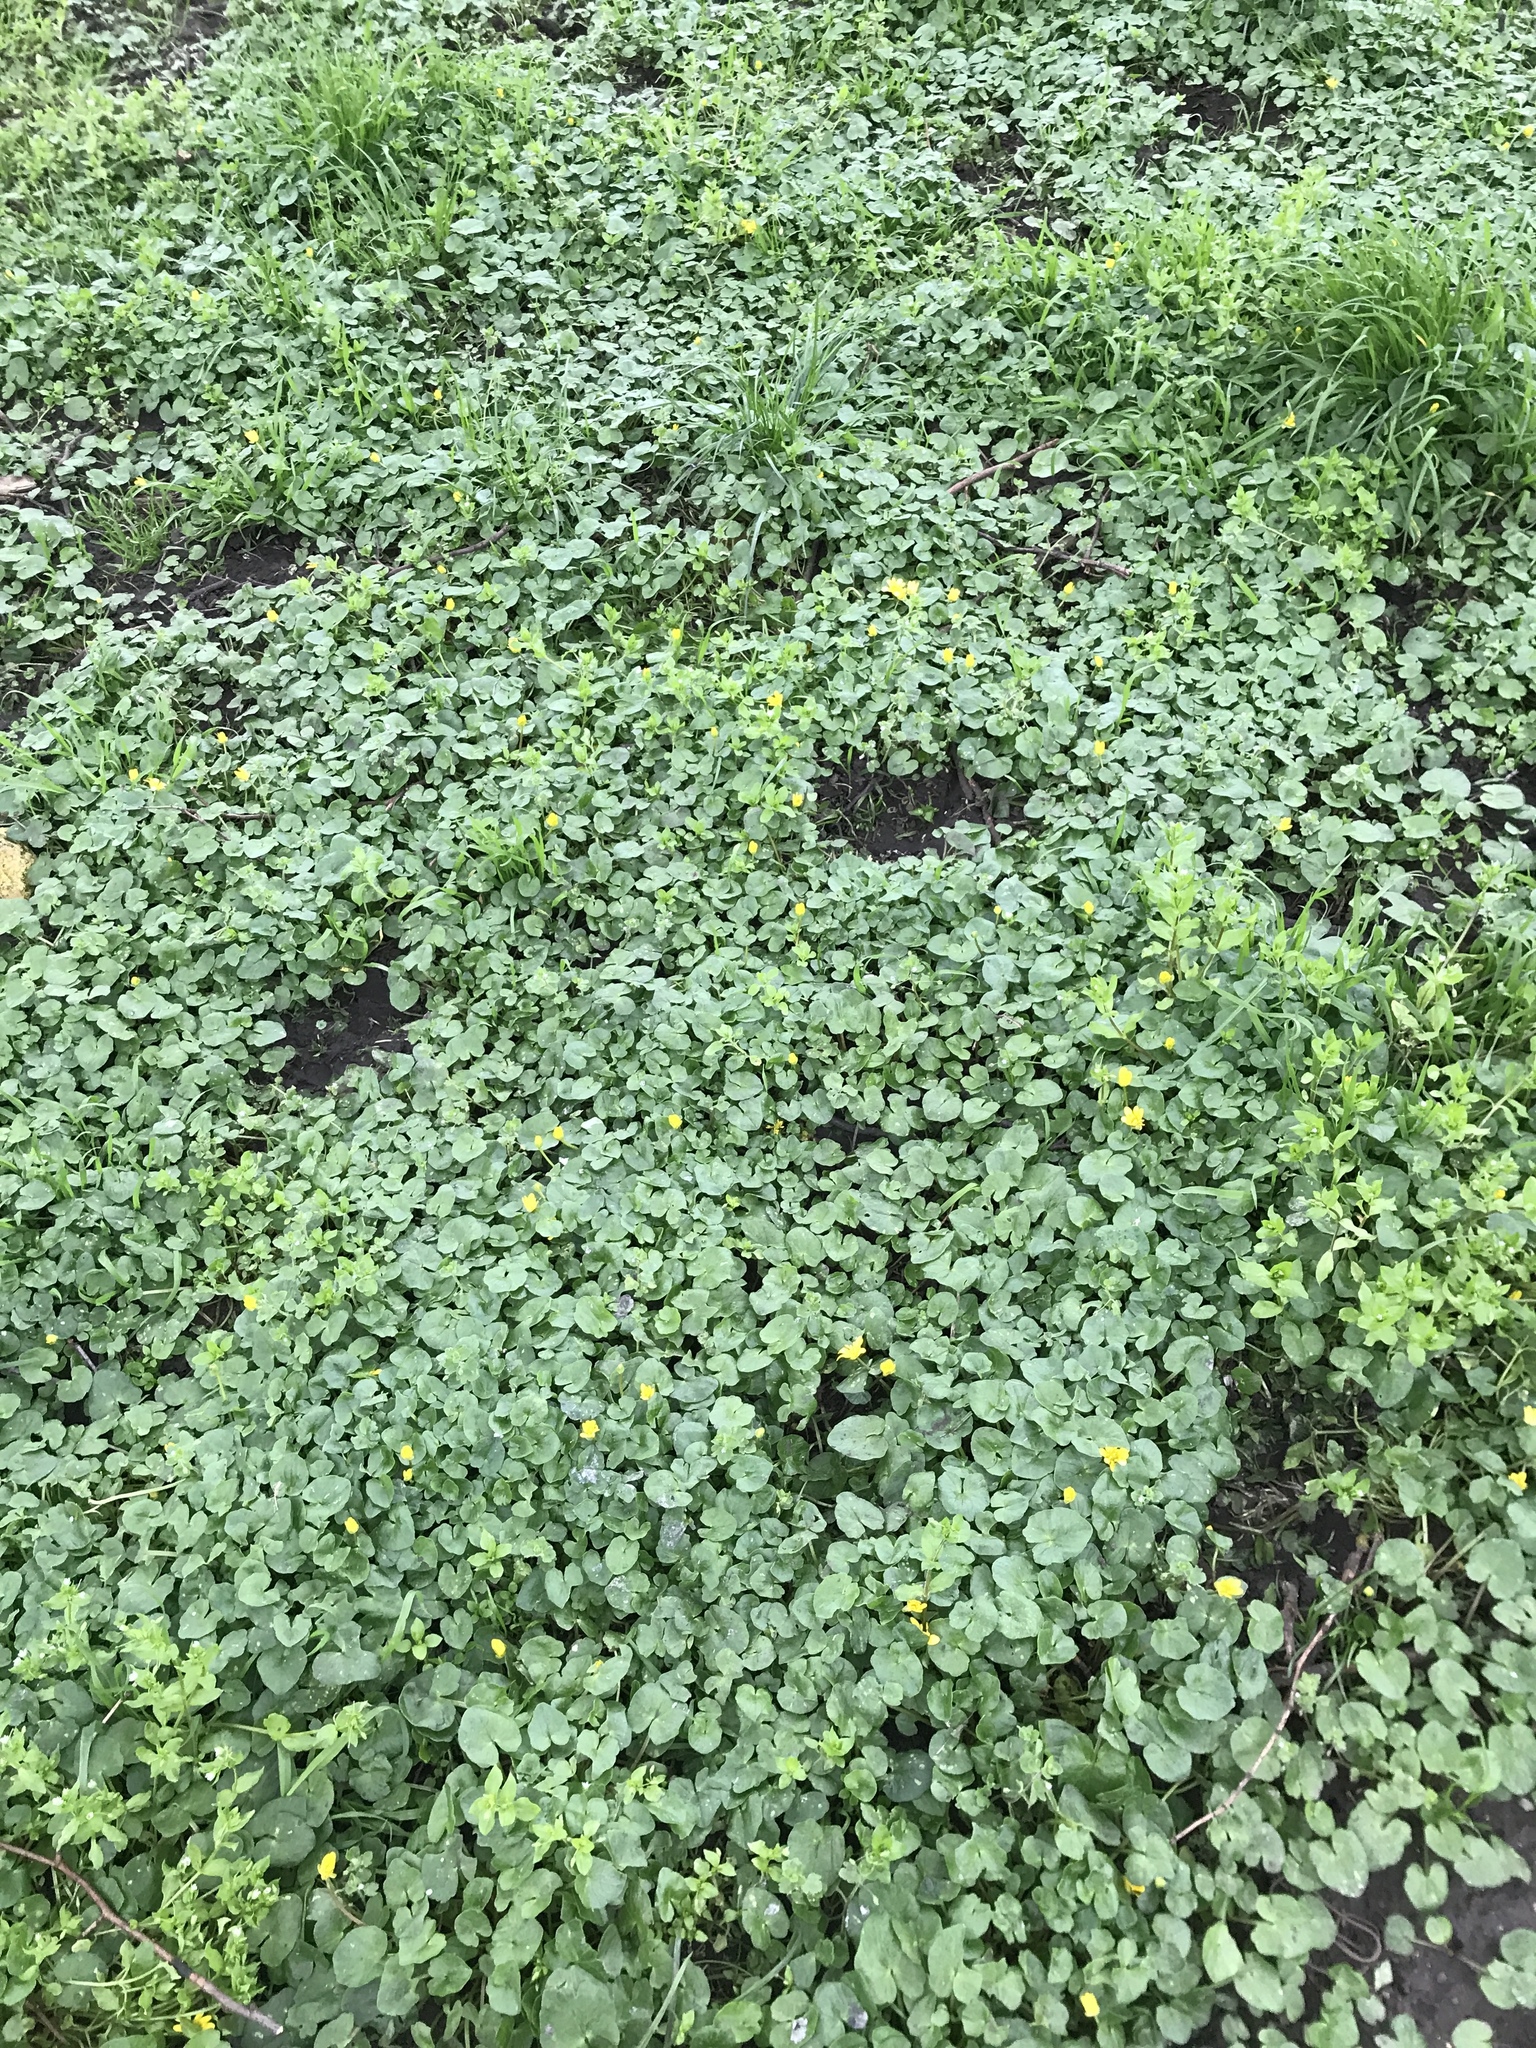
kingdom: Plantae
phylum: Tracheophyta
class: Magnoliopsida
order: Ranunculales
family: Ranunculaceae
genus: Ficaria
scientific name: Ficaria verna
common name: Lesser celandine
